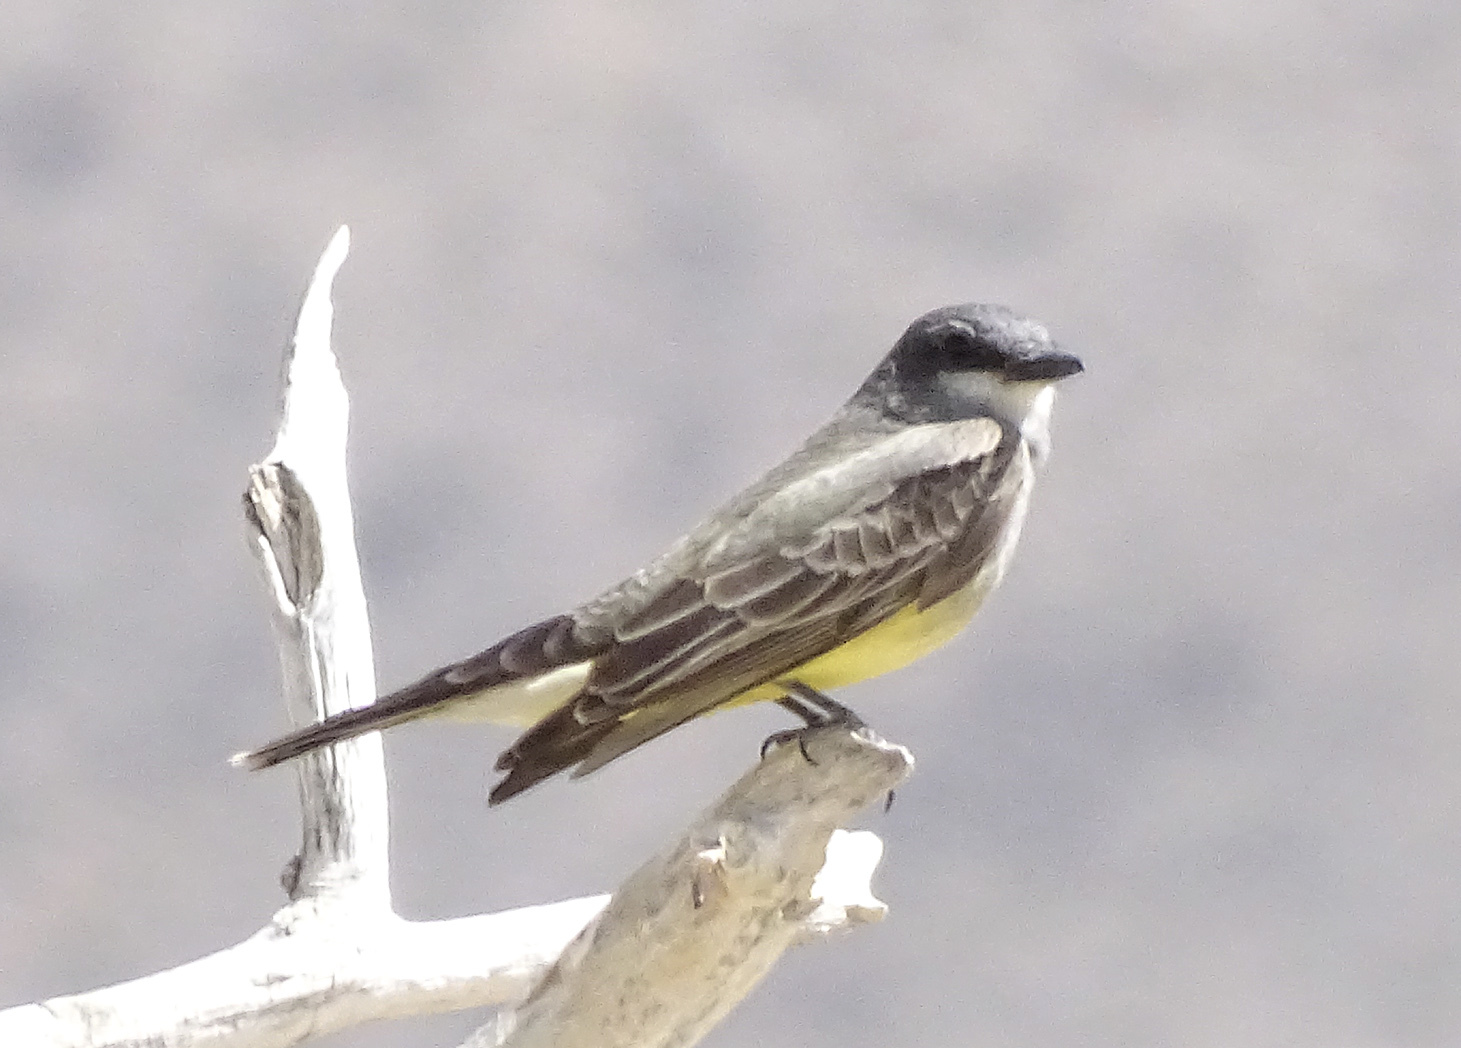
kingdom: Animalia
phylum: Chordata
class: Aves
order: Passeriformes
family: Tyrannidae
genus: Tyrannus
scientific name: Tyrannus vociferans
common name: Cassin's kingbird
